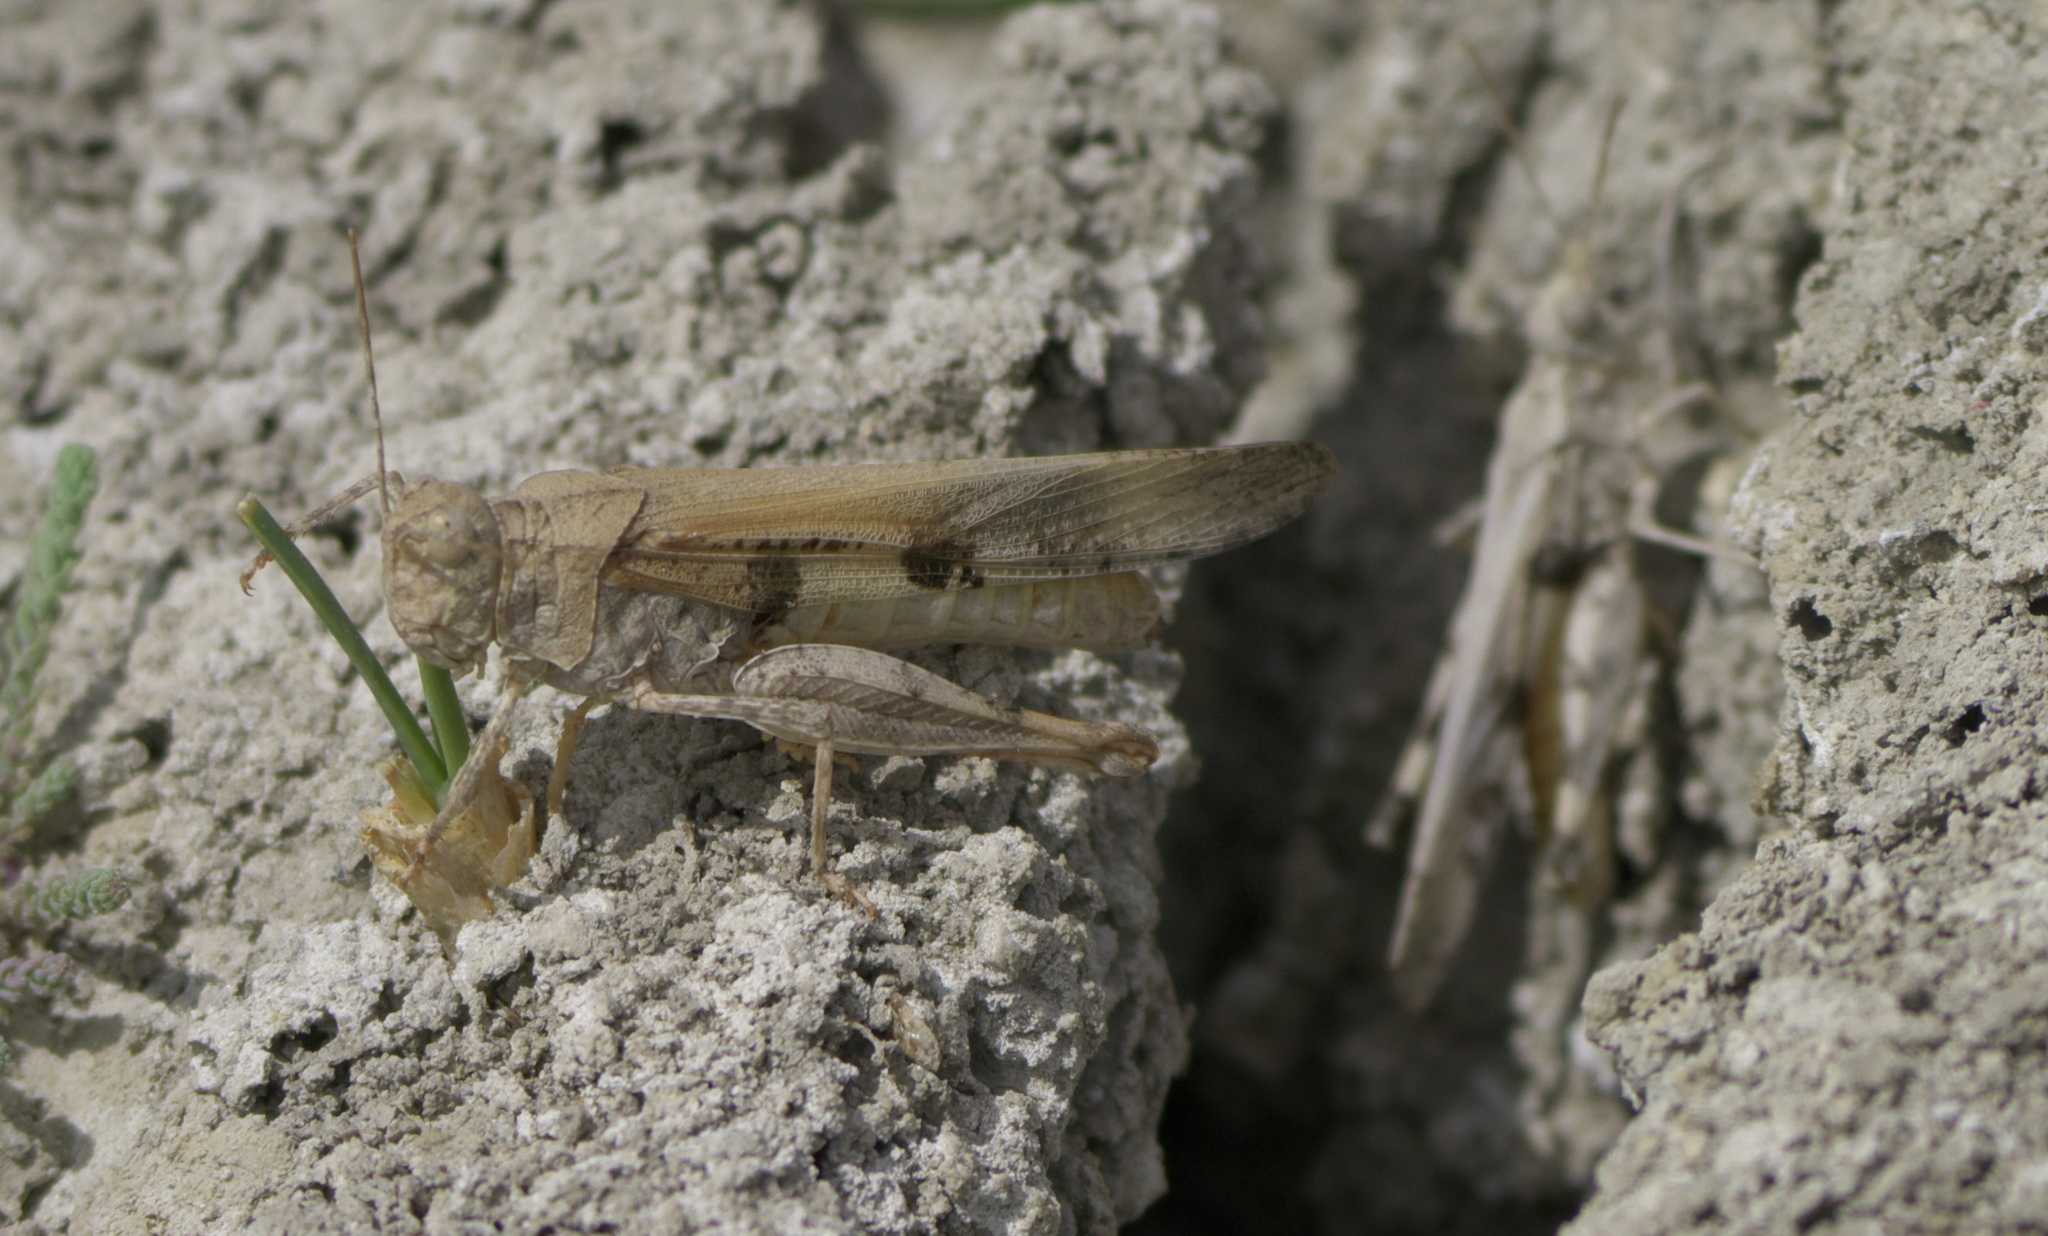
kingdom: Animalia
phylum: Arthropoda
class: Insecta
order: Orthoptera
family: Acrididae
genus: Conozoa
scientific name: Conozoa sulcifrons
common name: Groove-headed grasshopper
